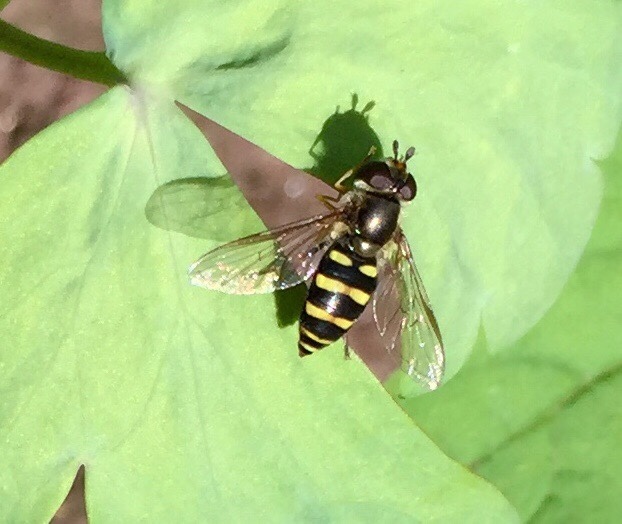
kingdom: Animalia
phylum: Arthropoda
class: Insecta
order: Diptera
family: Syrphidae
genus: Eupeodes
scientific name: Eupeodes
